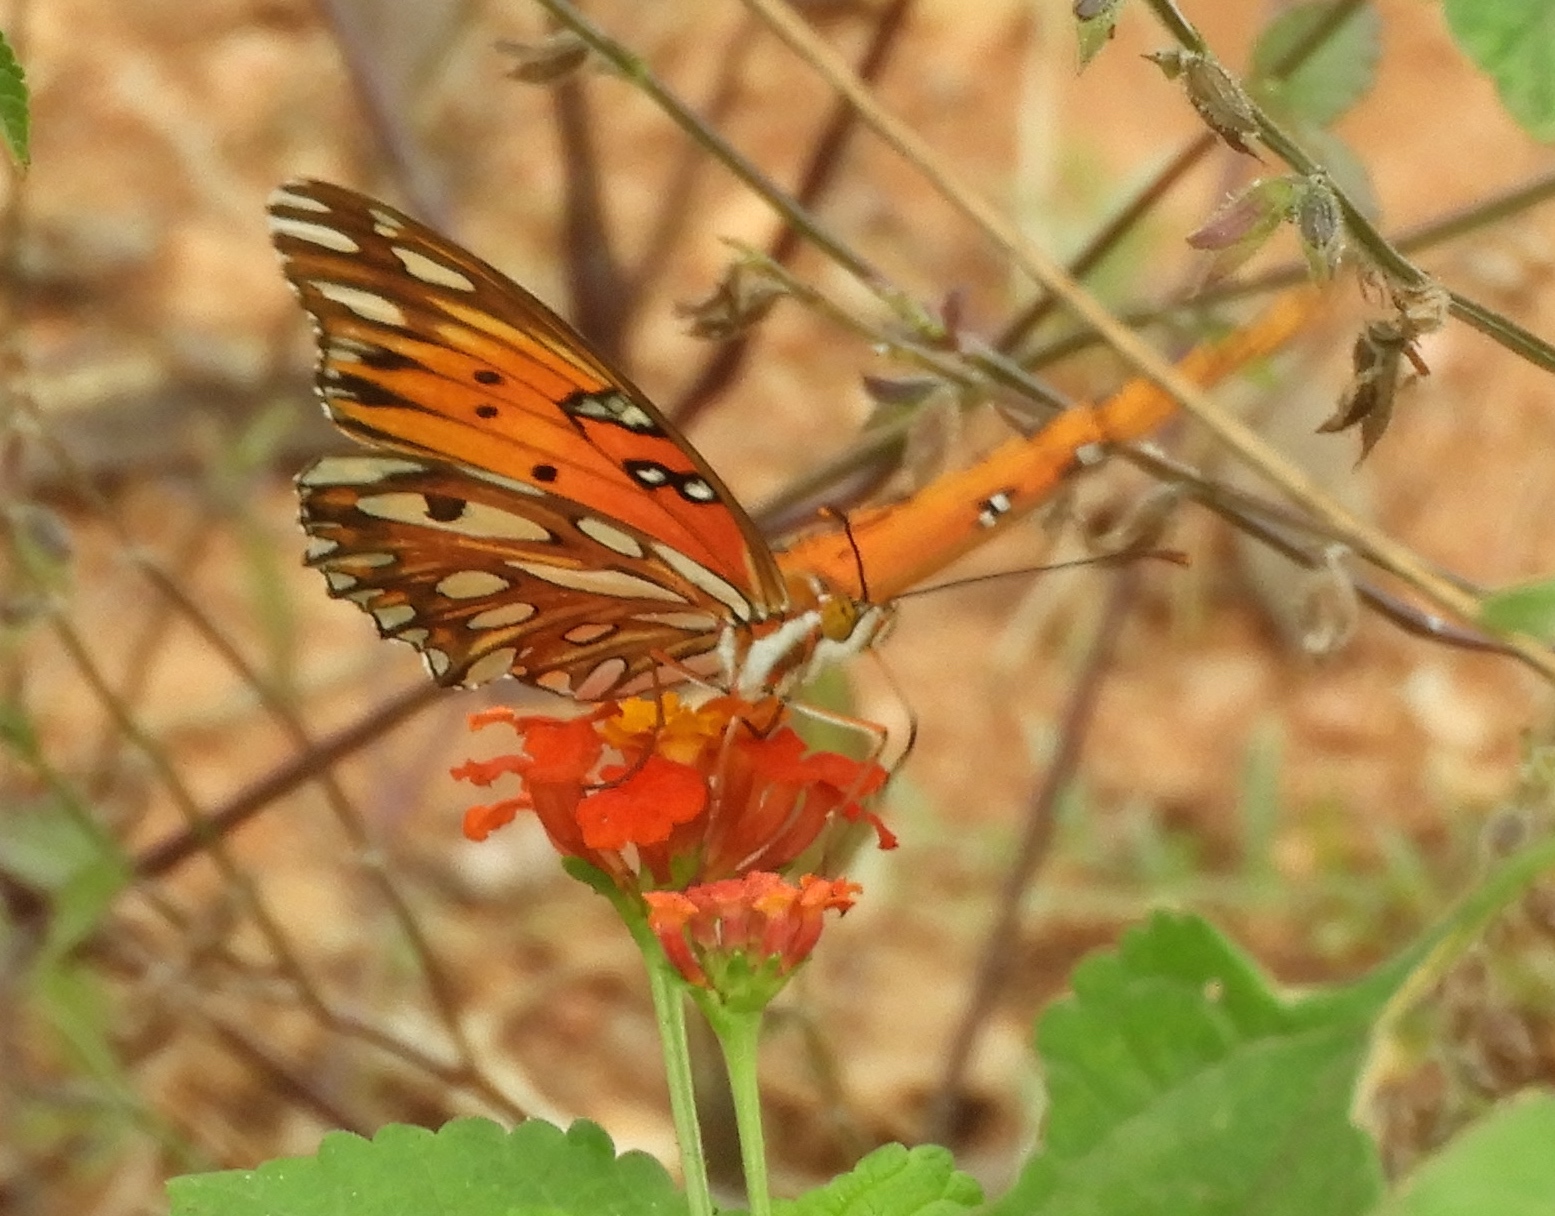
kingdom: Animalia
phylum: Arthropoda
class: Insecta
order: Lepidoptera
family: Nymphalidae
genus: Dione
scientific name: Dione vanillae
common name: Gulf fritillary
